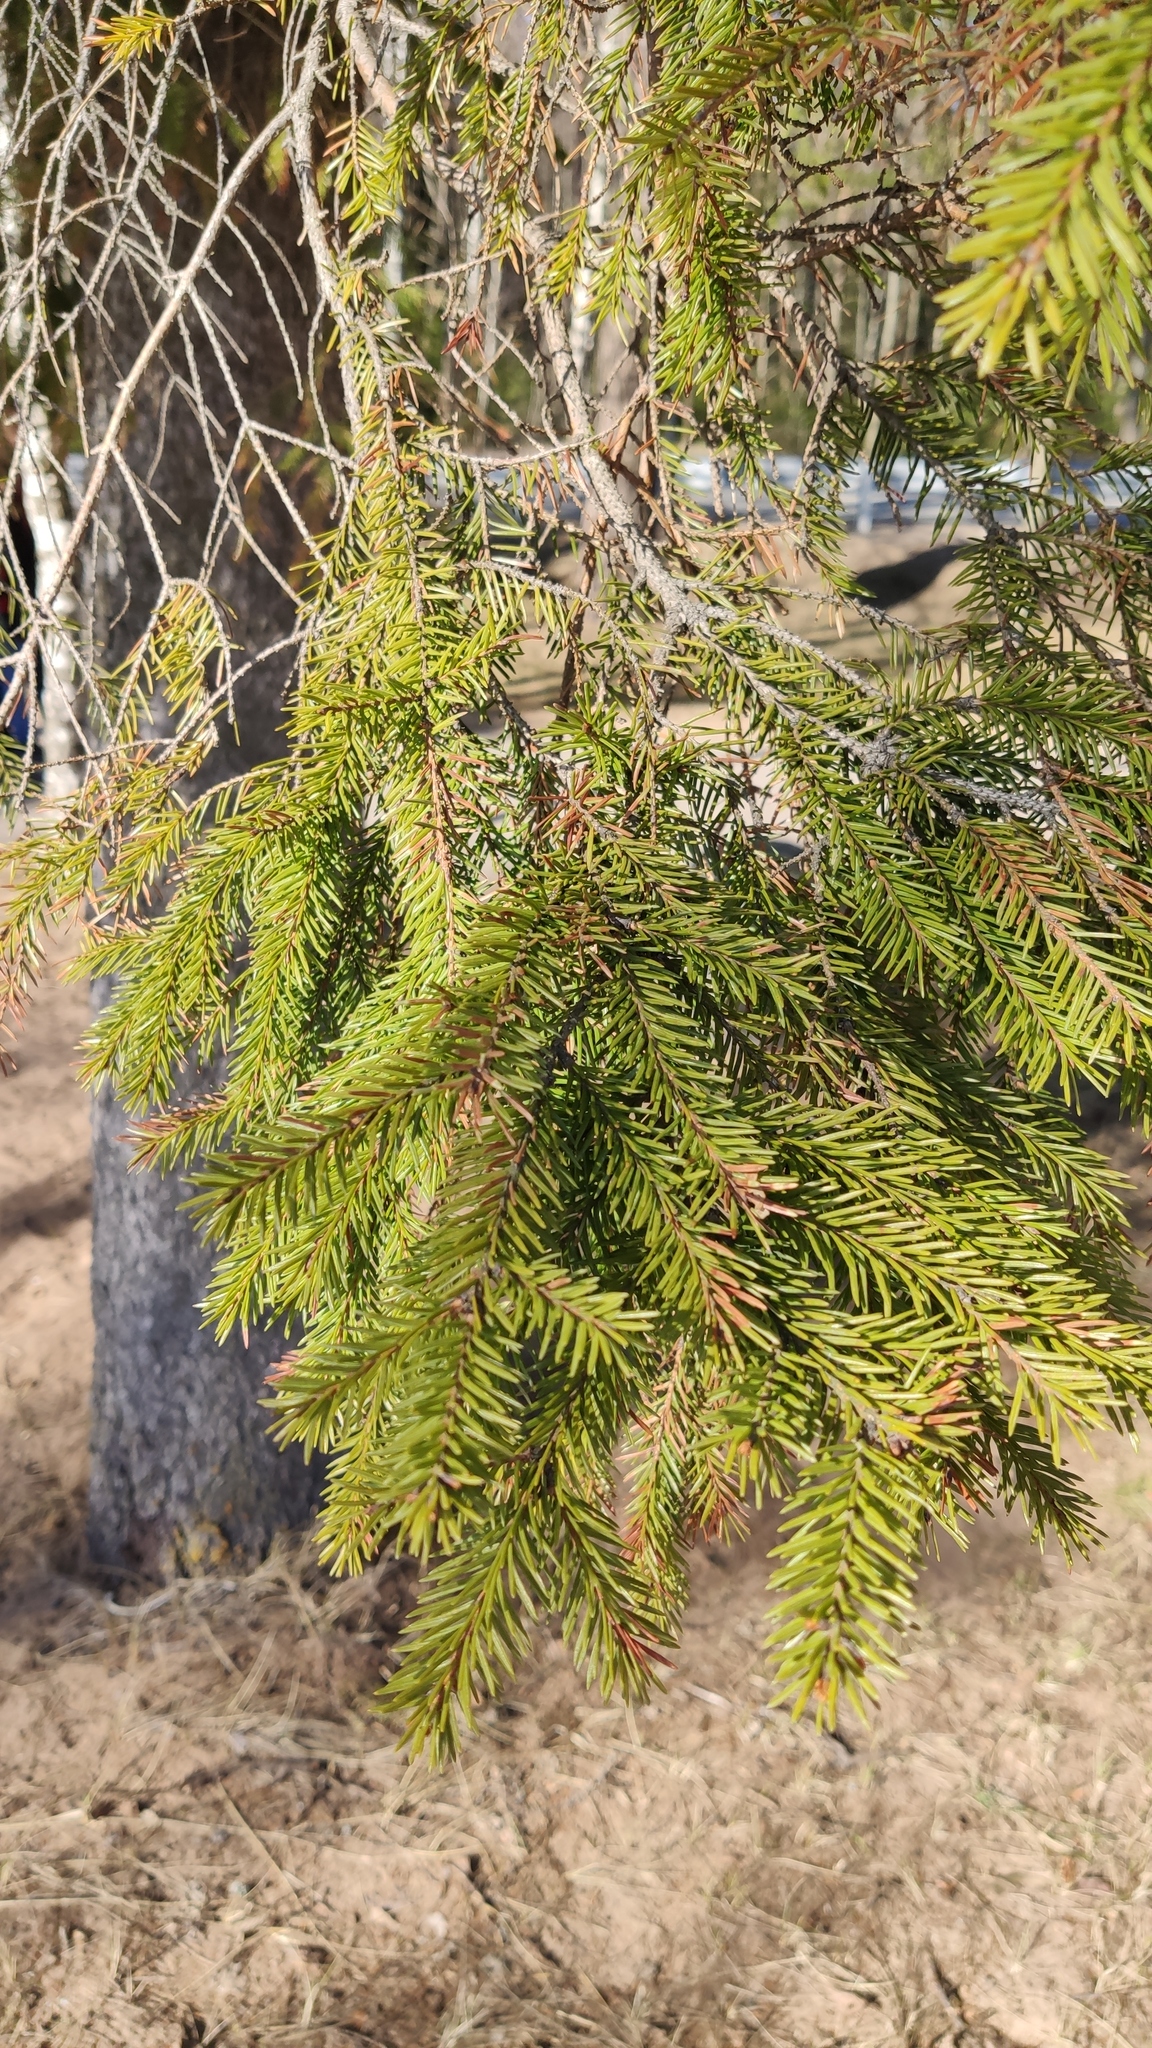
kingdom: Plantae
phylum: Tracheophyta
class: Pinopsida
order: Pinales
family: Pinaceae
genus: Picea
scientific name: Picea
